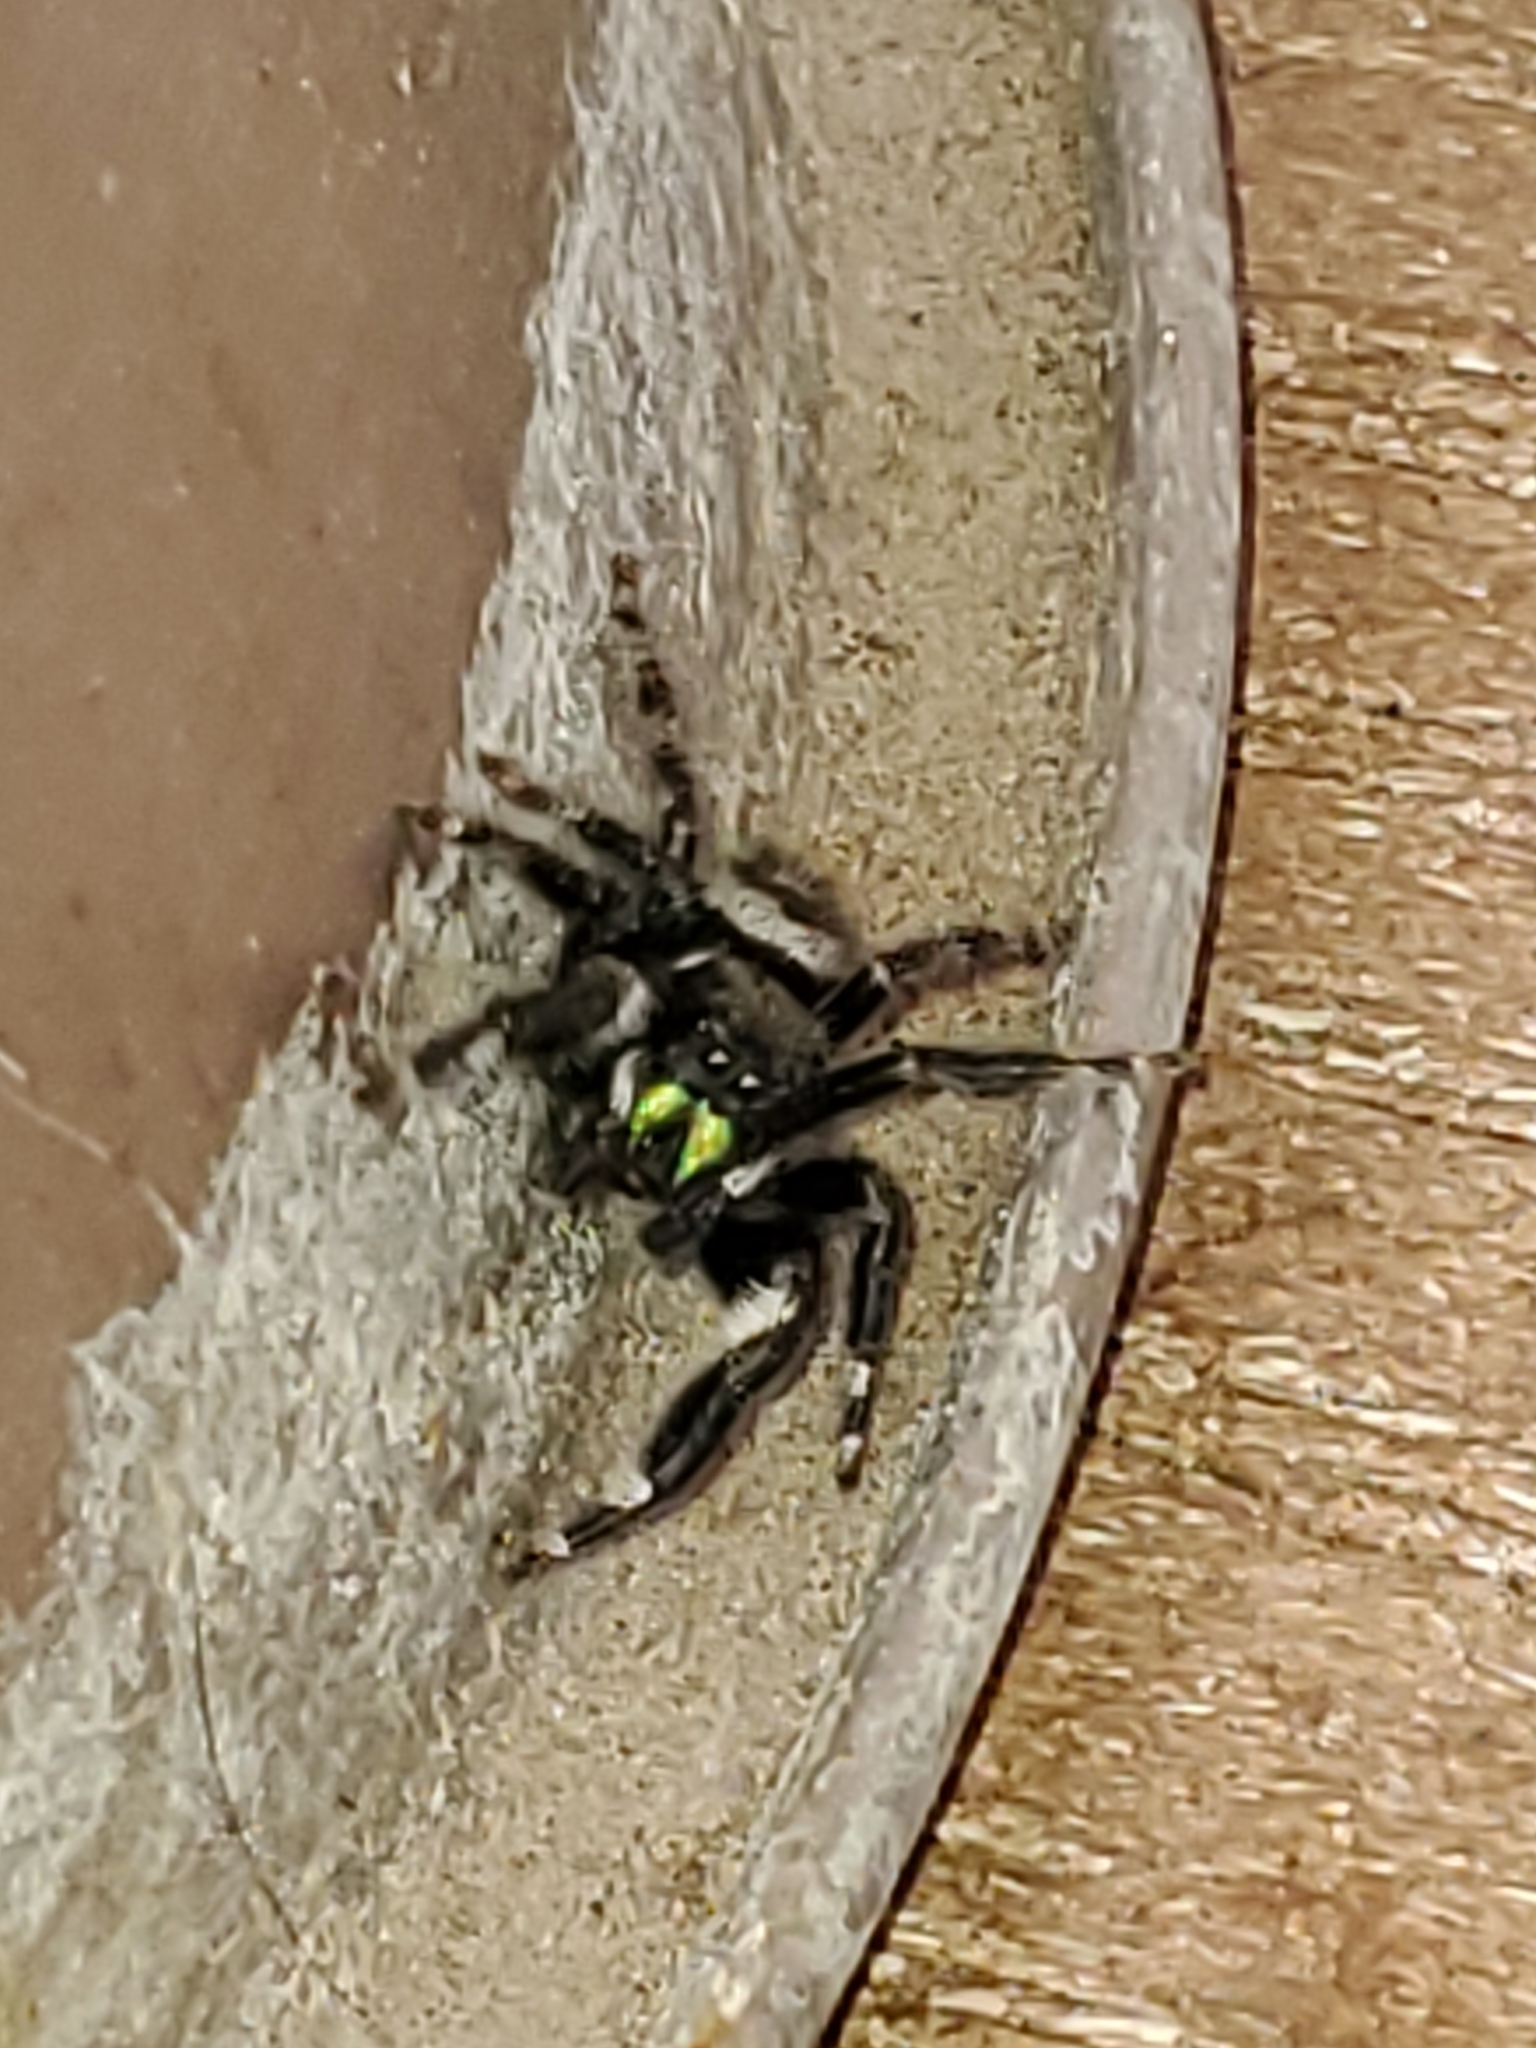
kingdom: Animalia
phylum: Arthropoda
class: Arachnida
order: Araneae
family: Salticidae
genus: Phidippus
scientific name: Phidippus audax
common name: Bold jumper
